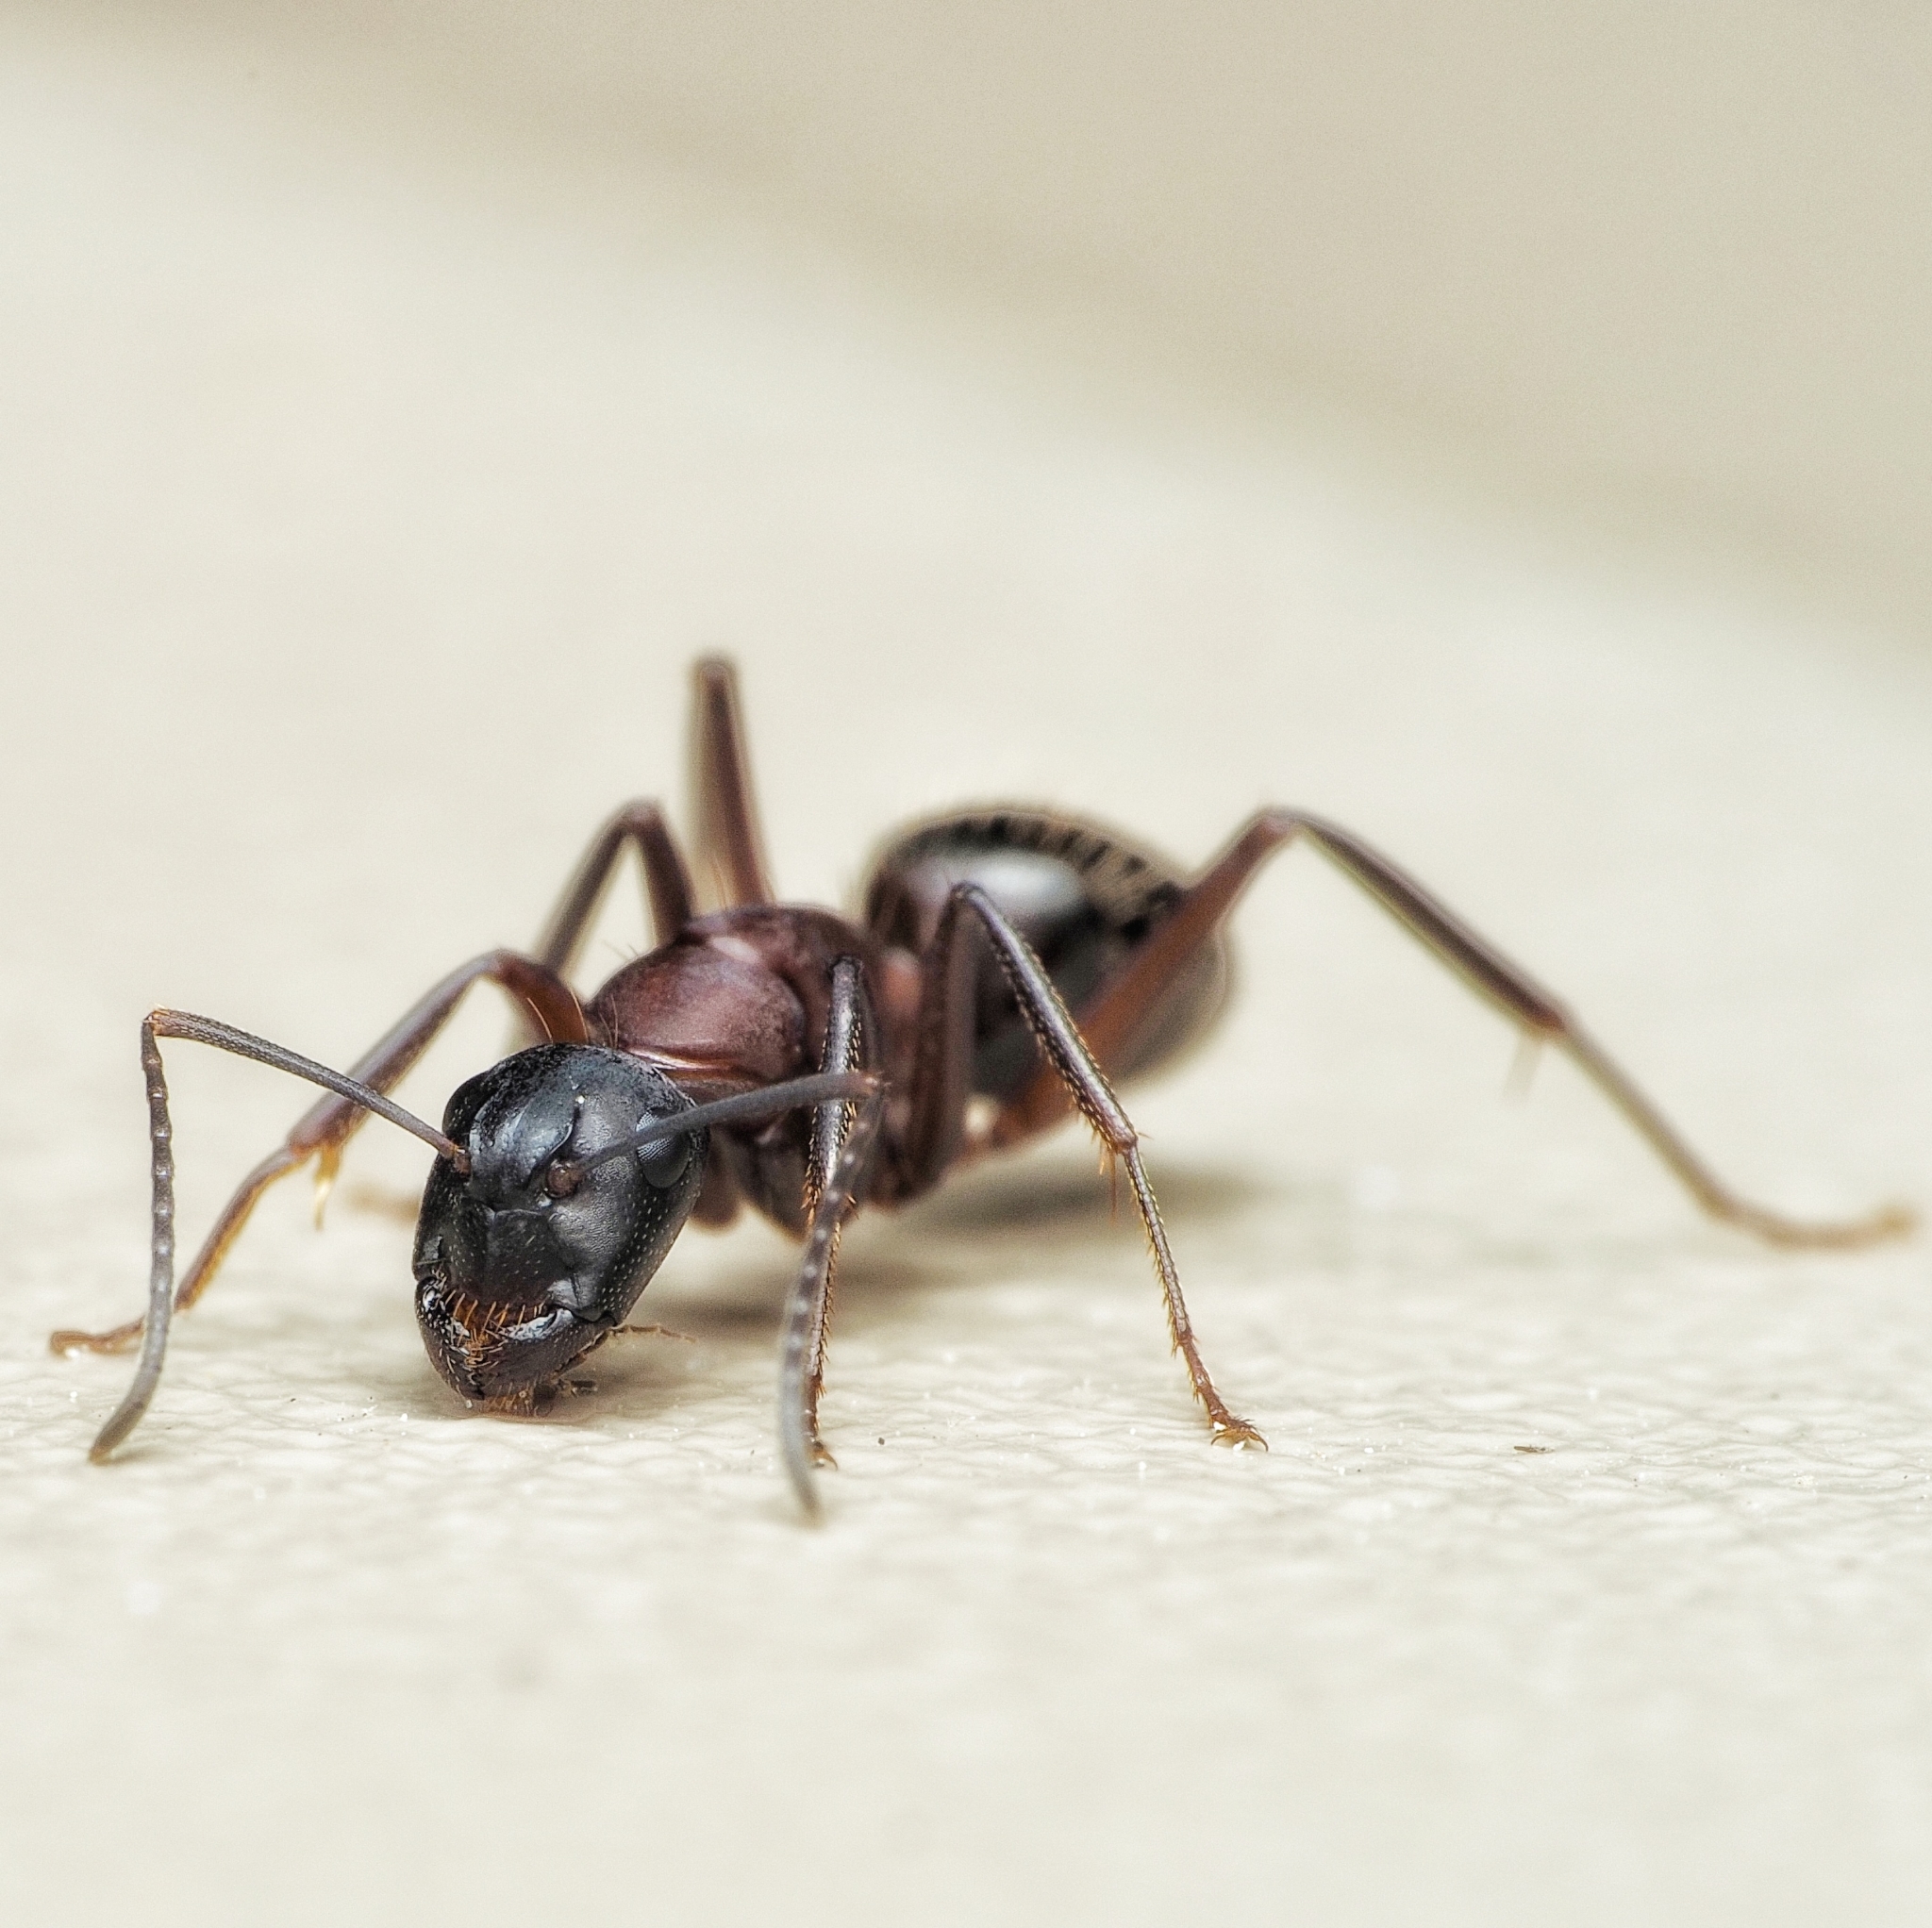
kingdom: Animalia
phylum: Arthropoda
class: Insecta
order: Hymenoptera
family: Formicidae
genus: Camponotus
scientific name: Camponotus ligniperdus
